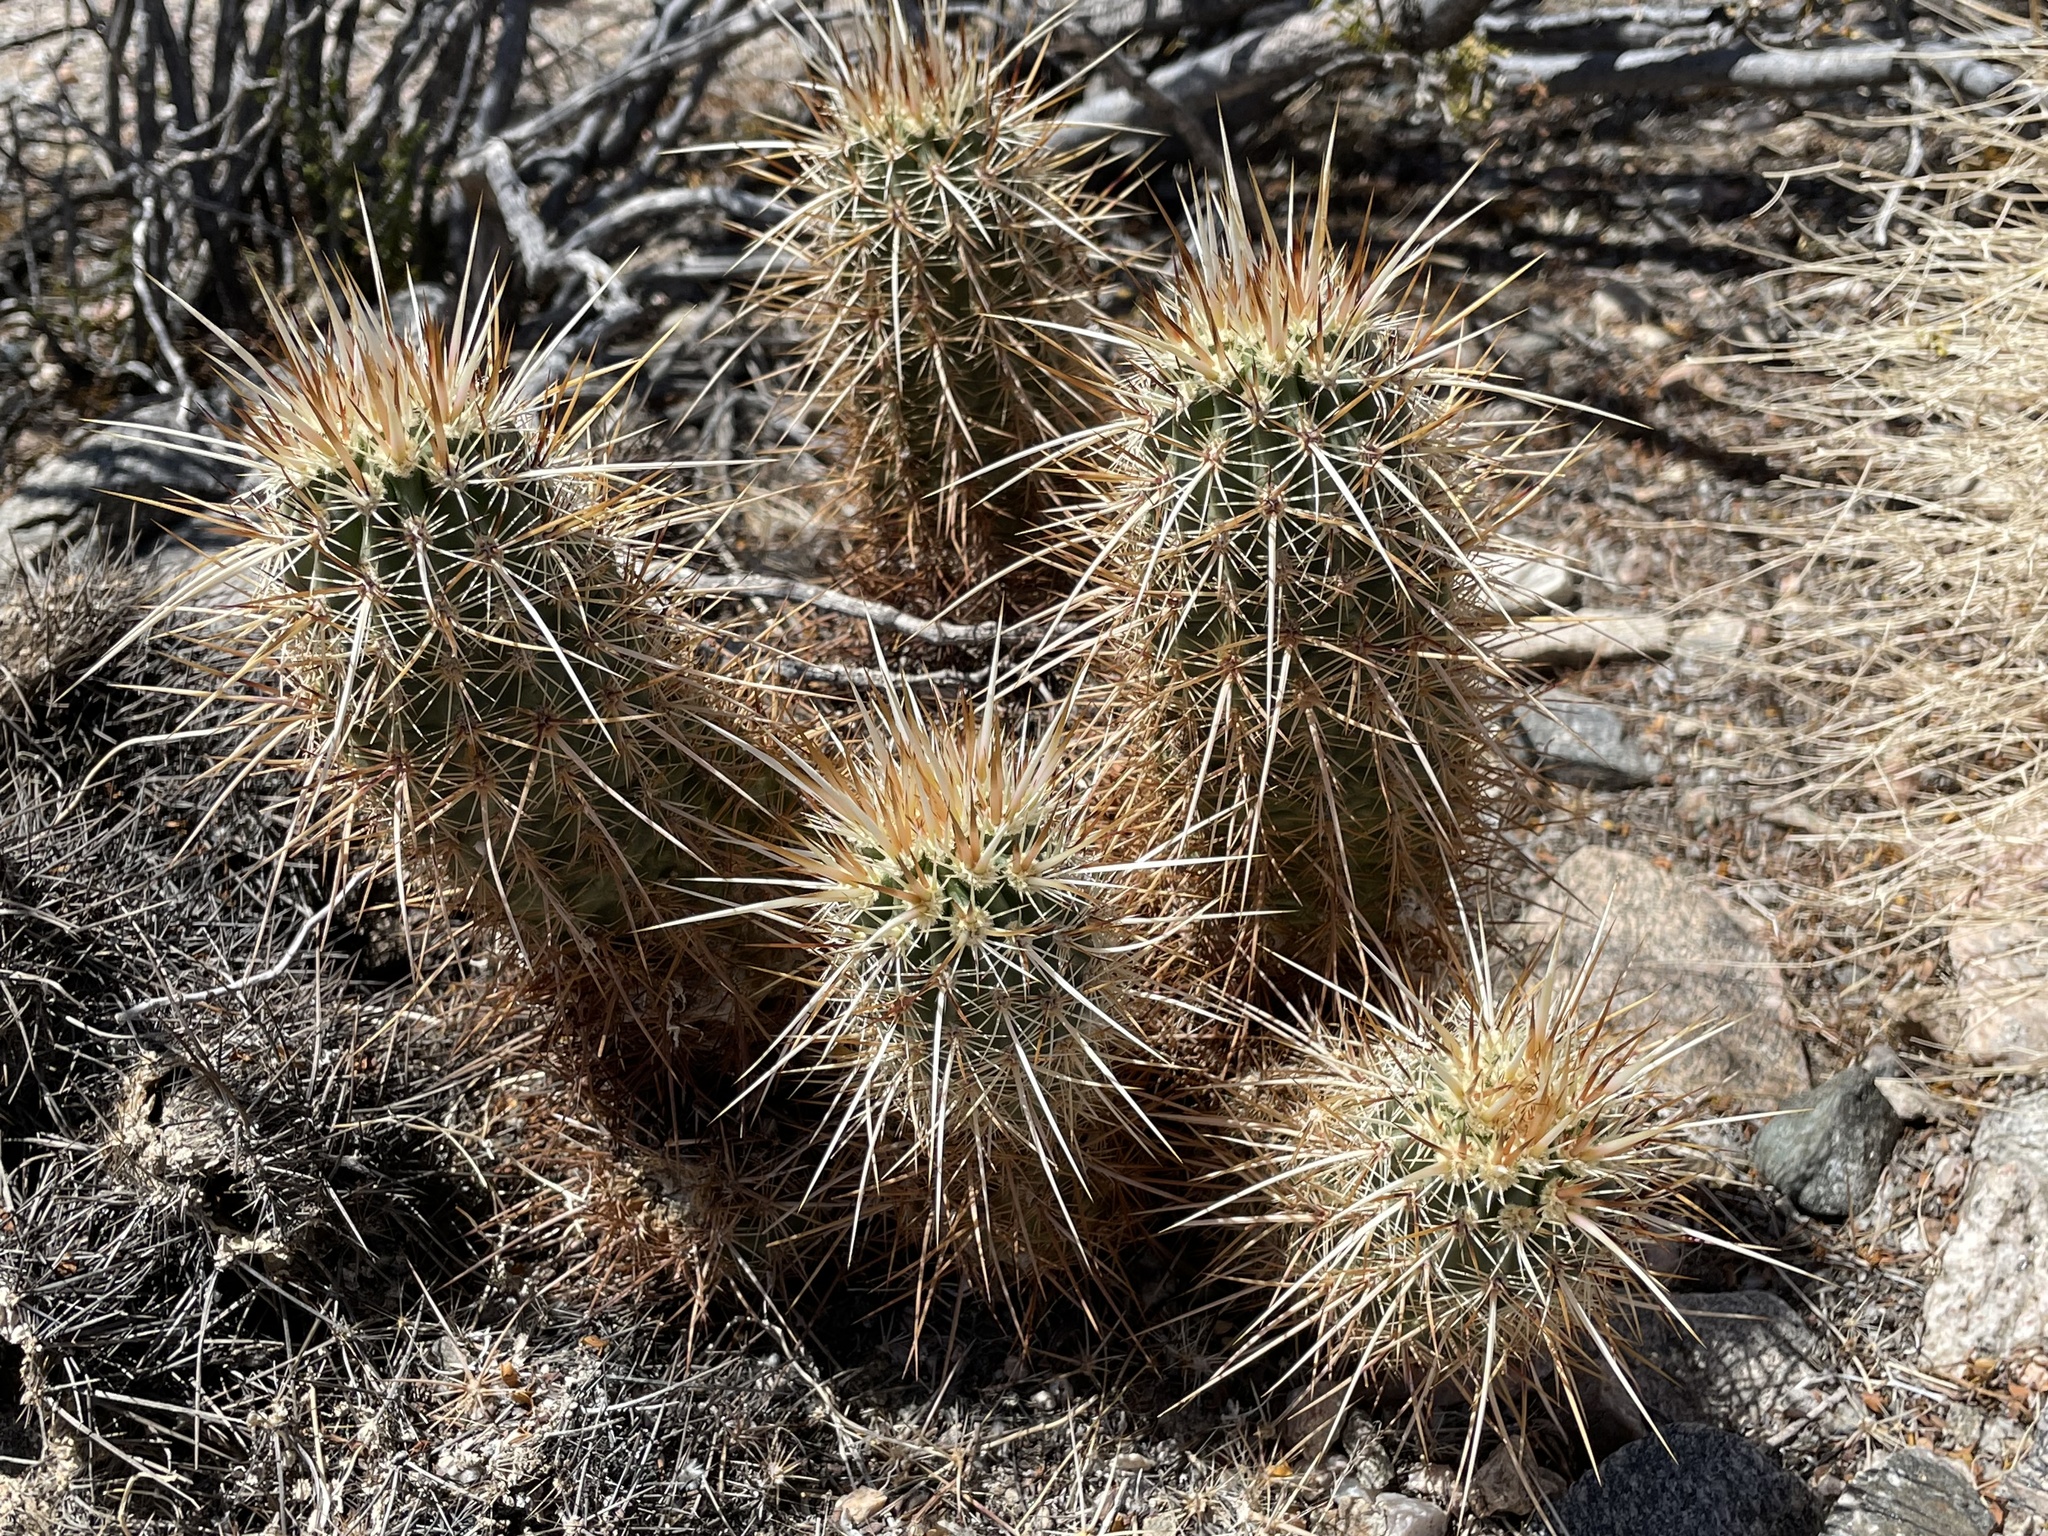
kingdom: Plantae
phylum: Tracheophyta
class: Magnoliopsida
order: Caryophyllales
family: Cactaceae
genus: Echinocereus
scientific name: Echinocereus engelmannii
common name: Engelmann's hedgehog cactus
